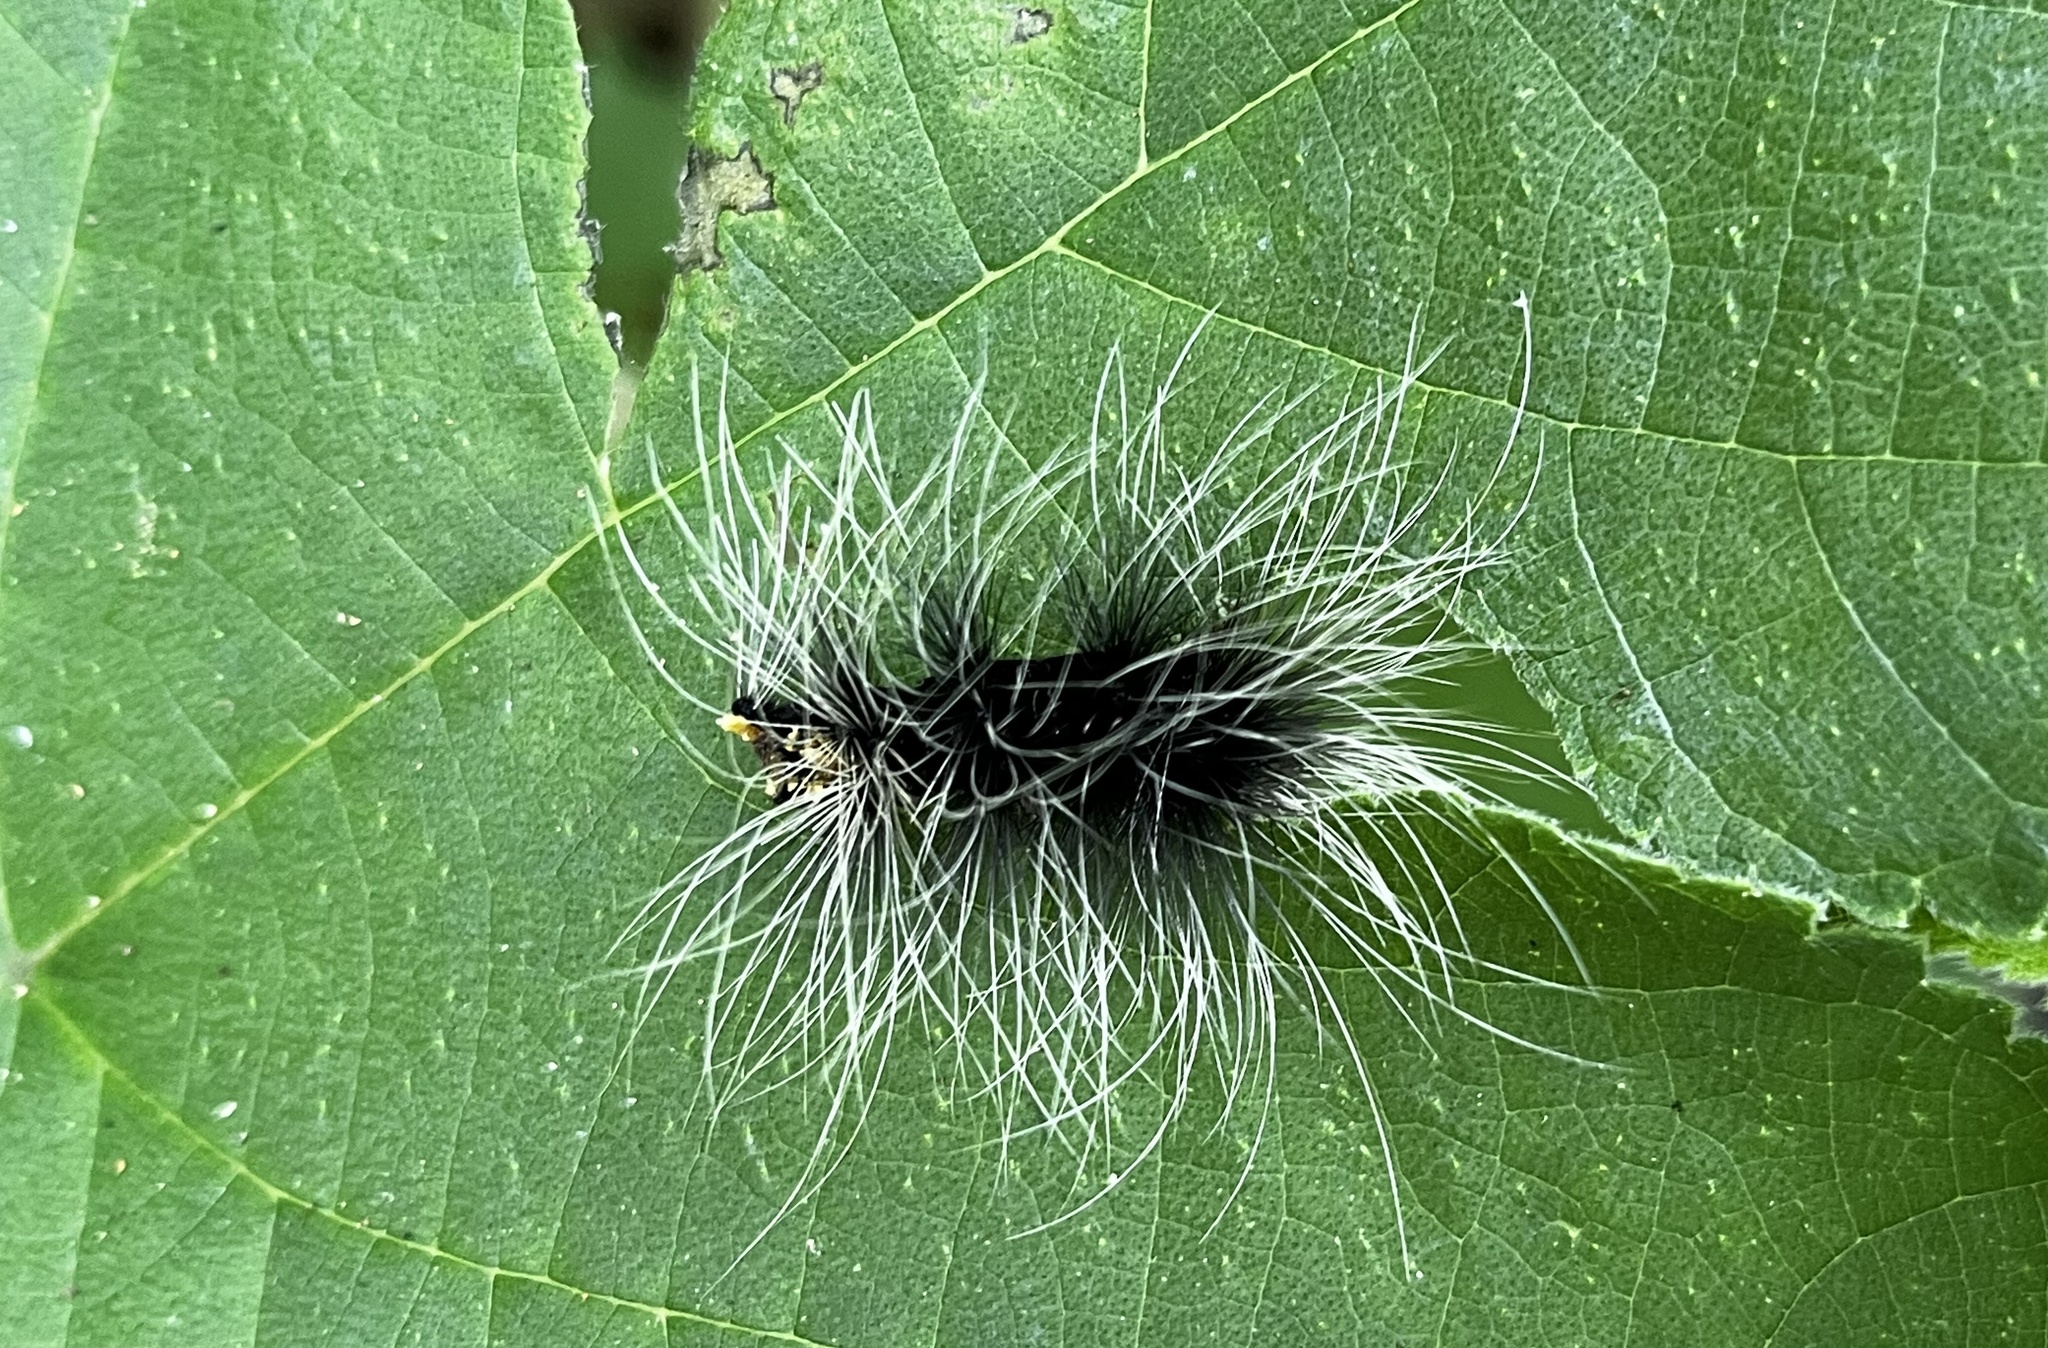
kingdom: Animalia
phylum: Arthropoda
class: Insecta
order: Lepidoptera
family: Erebidae
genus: Macrobrochis
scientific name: Macrobrochis gigas
